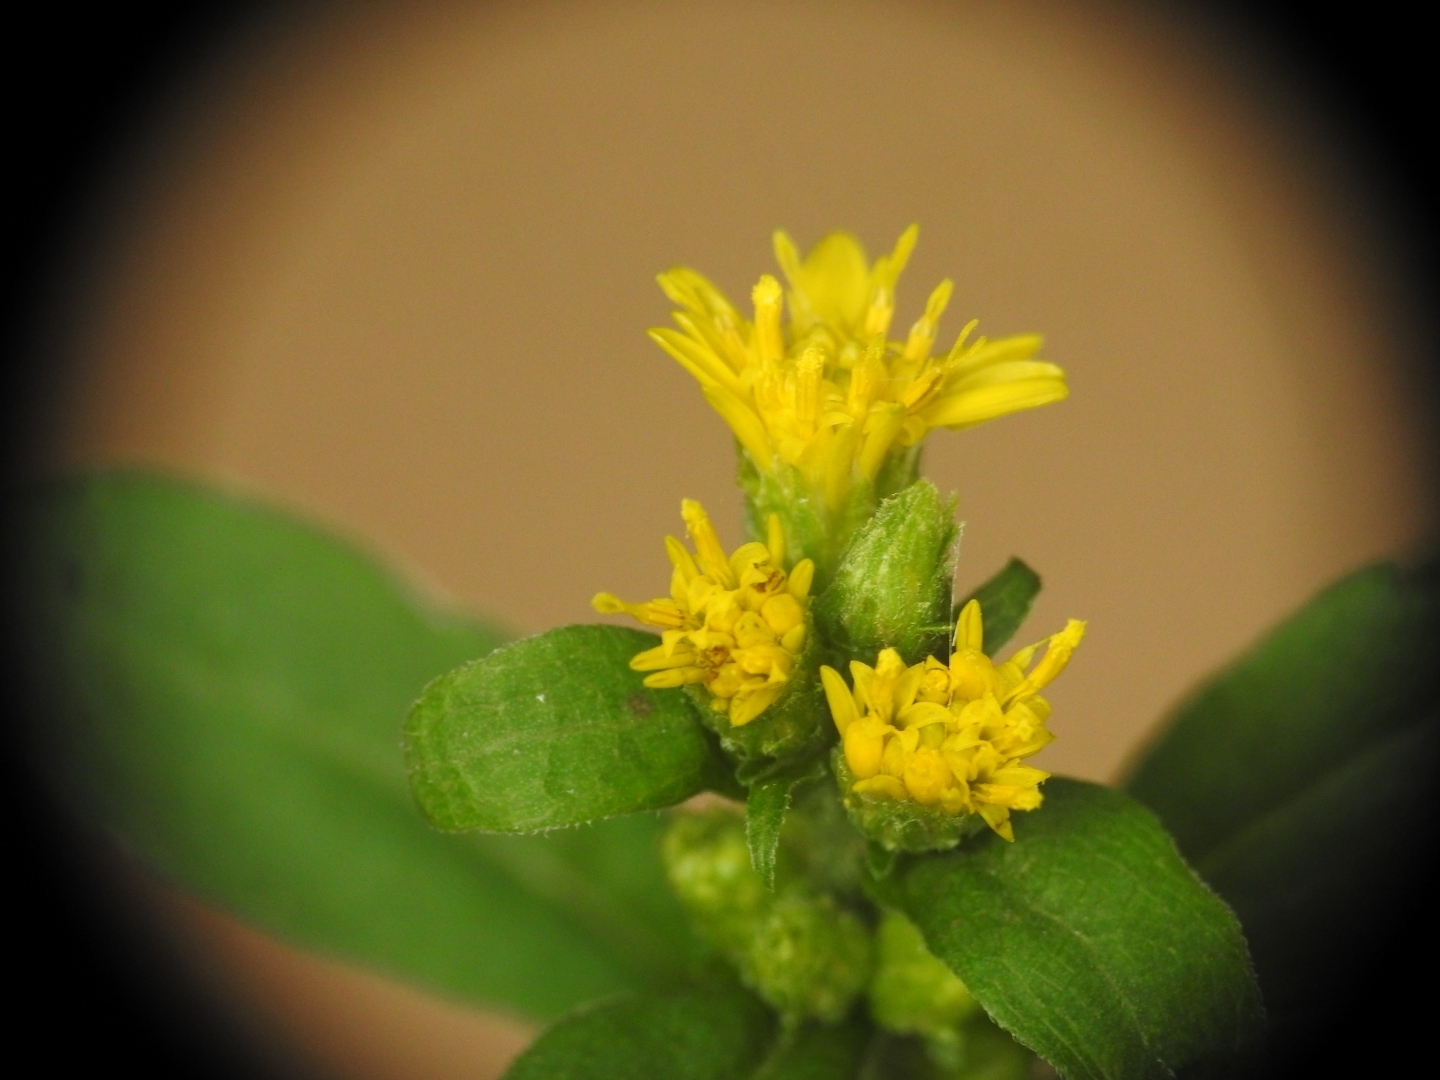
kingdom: Plantae
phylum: Tracheophyta
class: Magnoliopsida
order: Asterales
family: Asteraceae
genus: Solidago
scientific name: Solidago virgaurea
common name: Goldenrod
